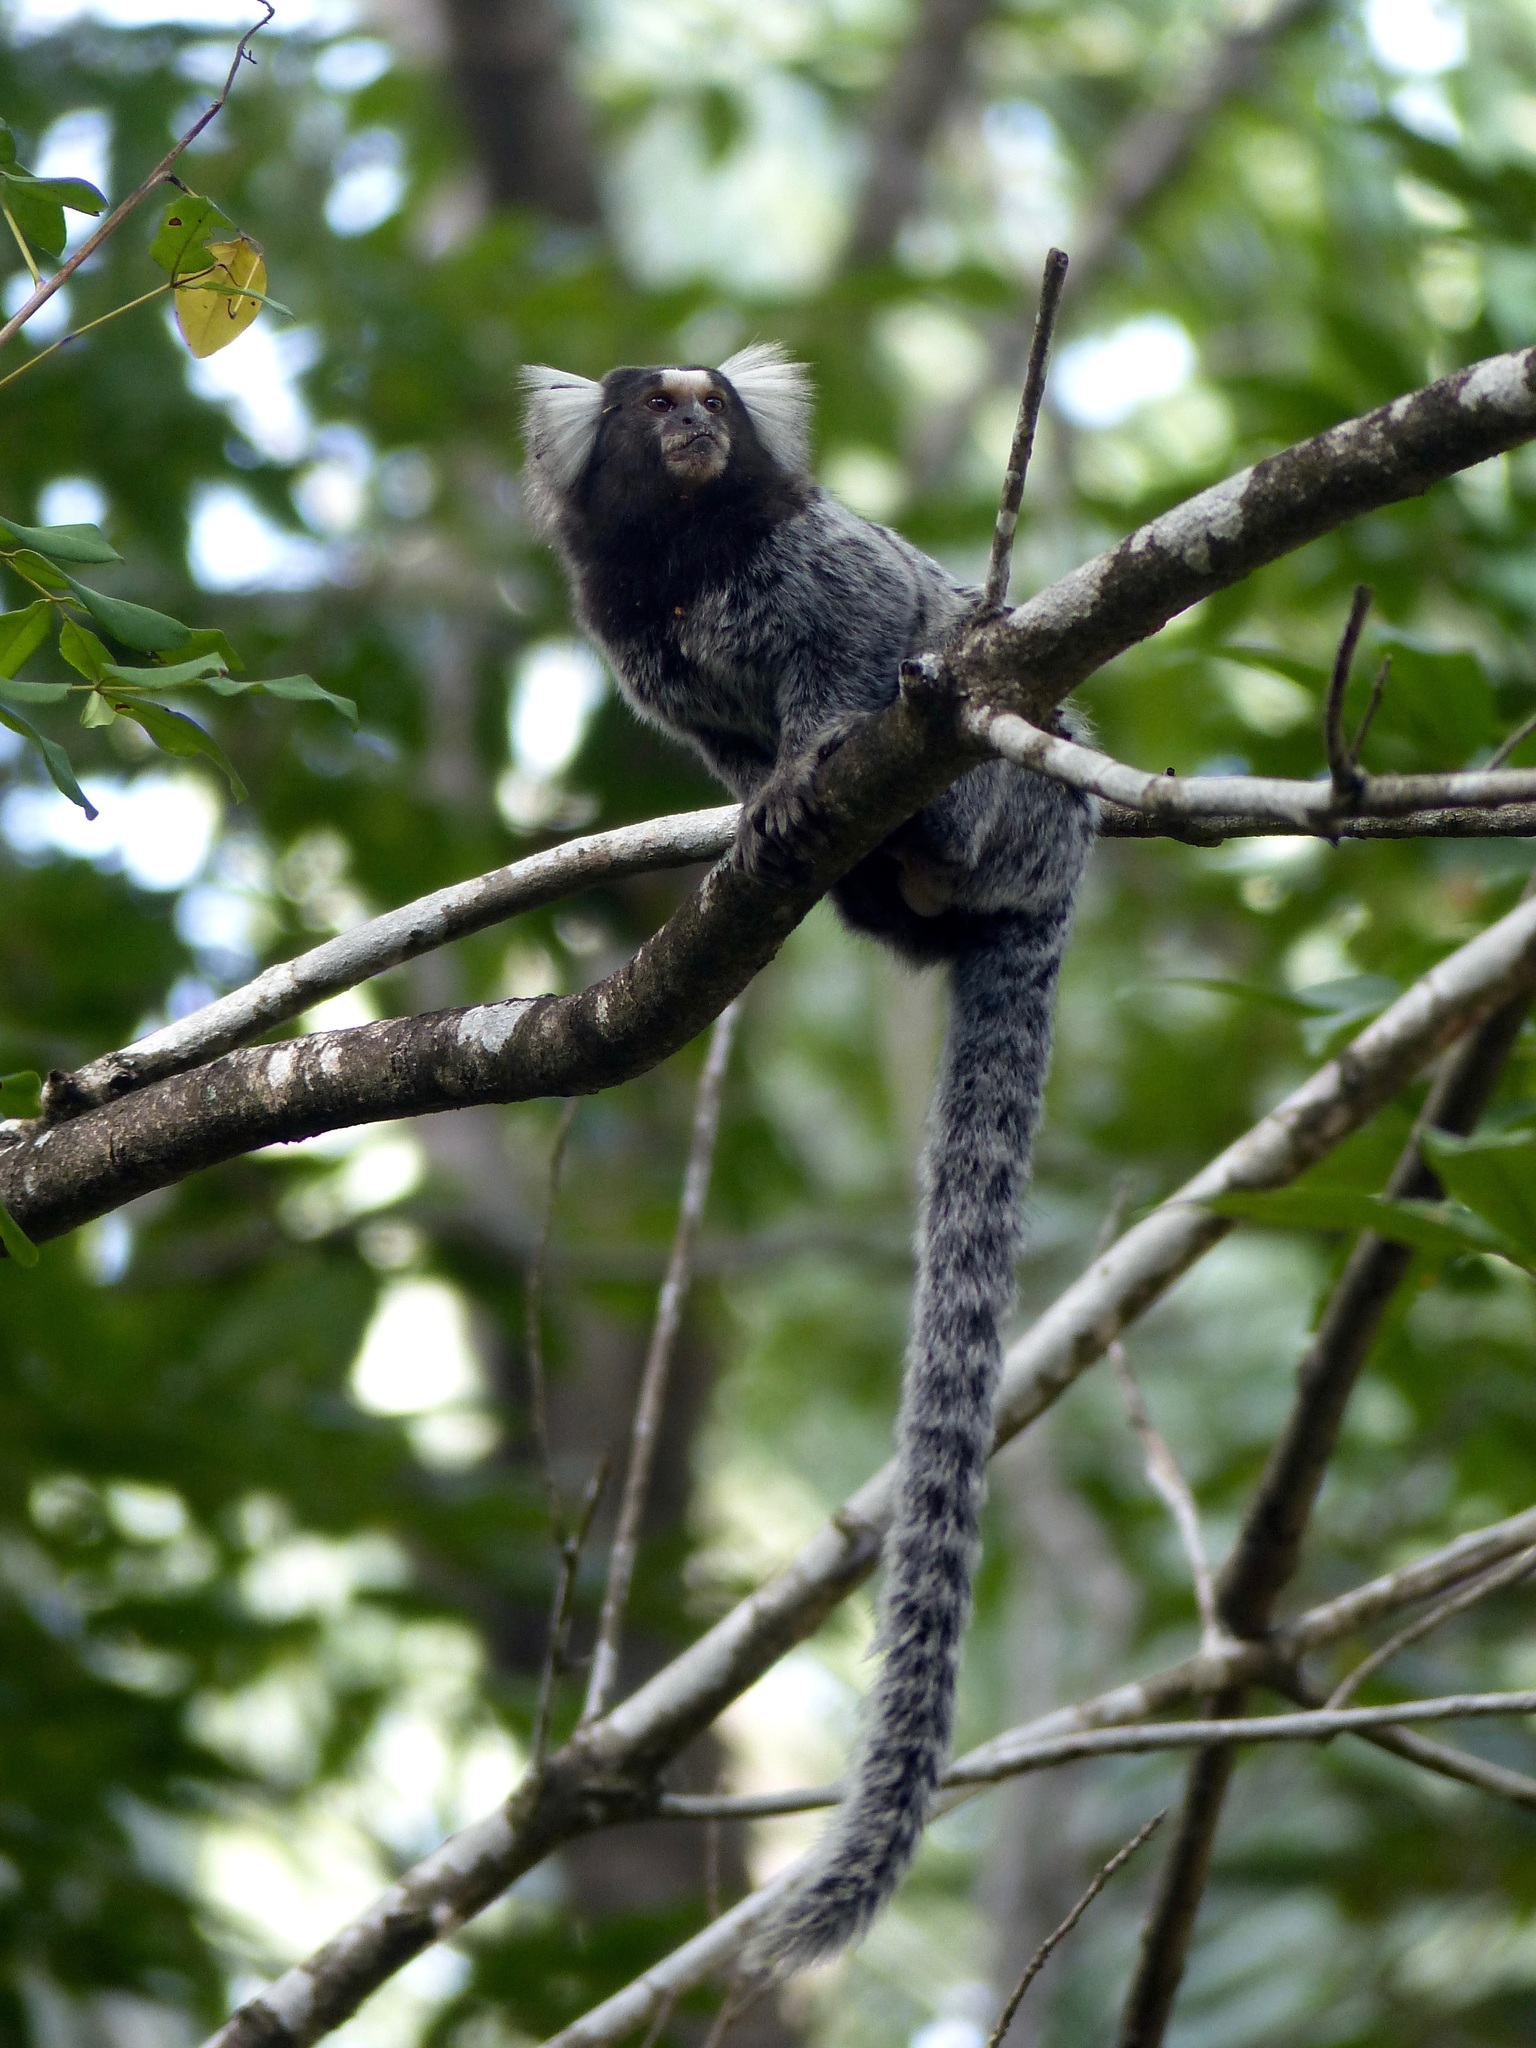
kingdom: Animalia
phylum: Chordata
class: Mammalia
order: Primates
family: Callitrichidae
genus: Callithrix
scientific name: Callithrix jacchus
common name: Common marmoset
